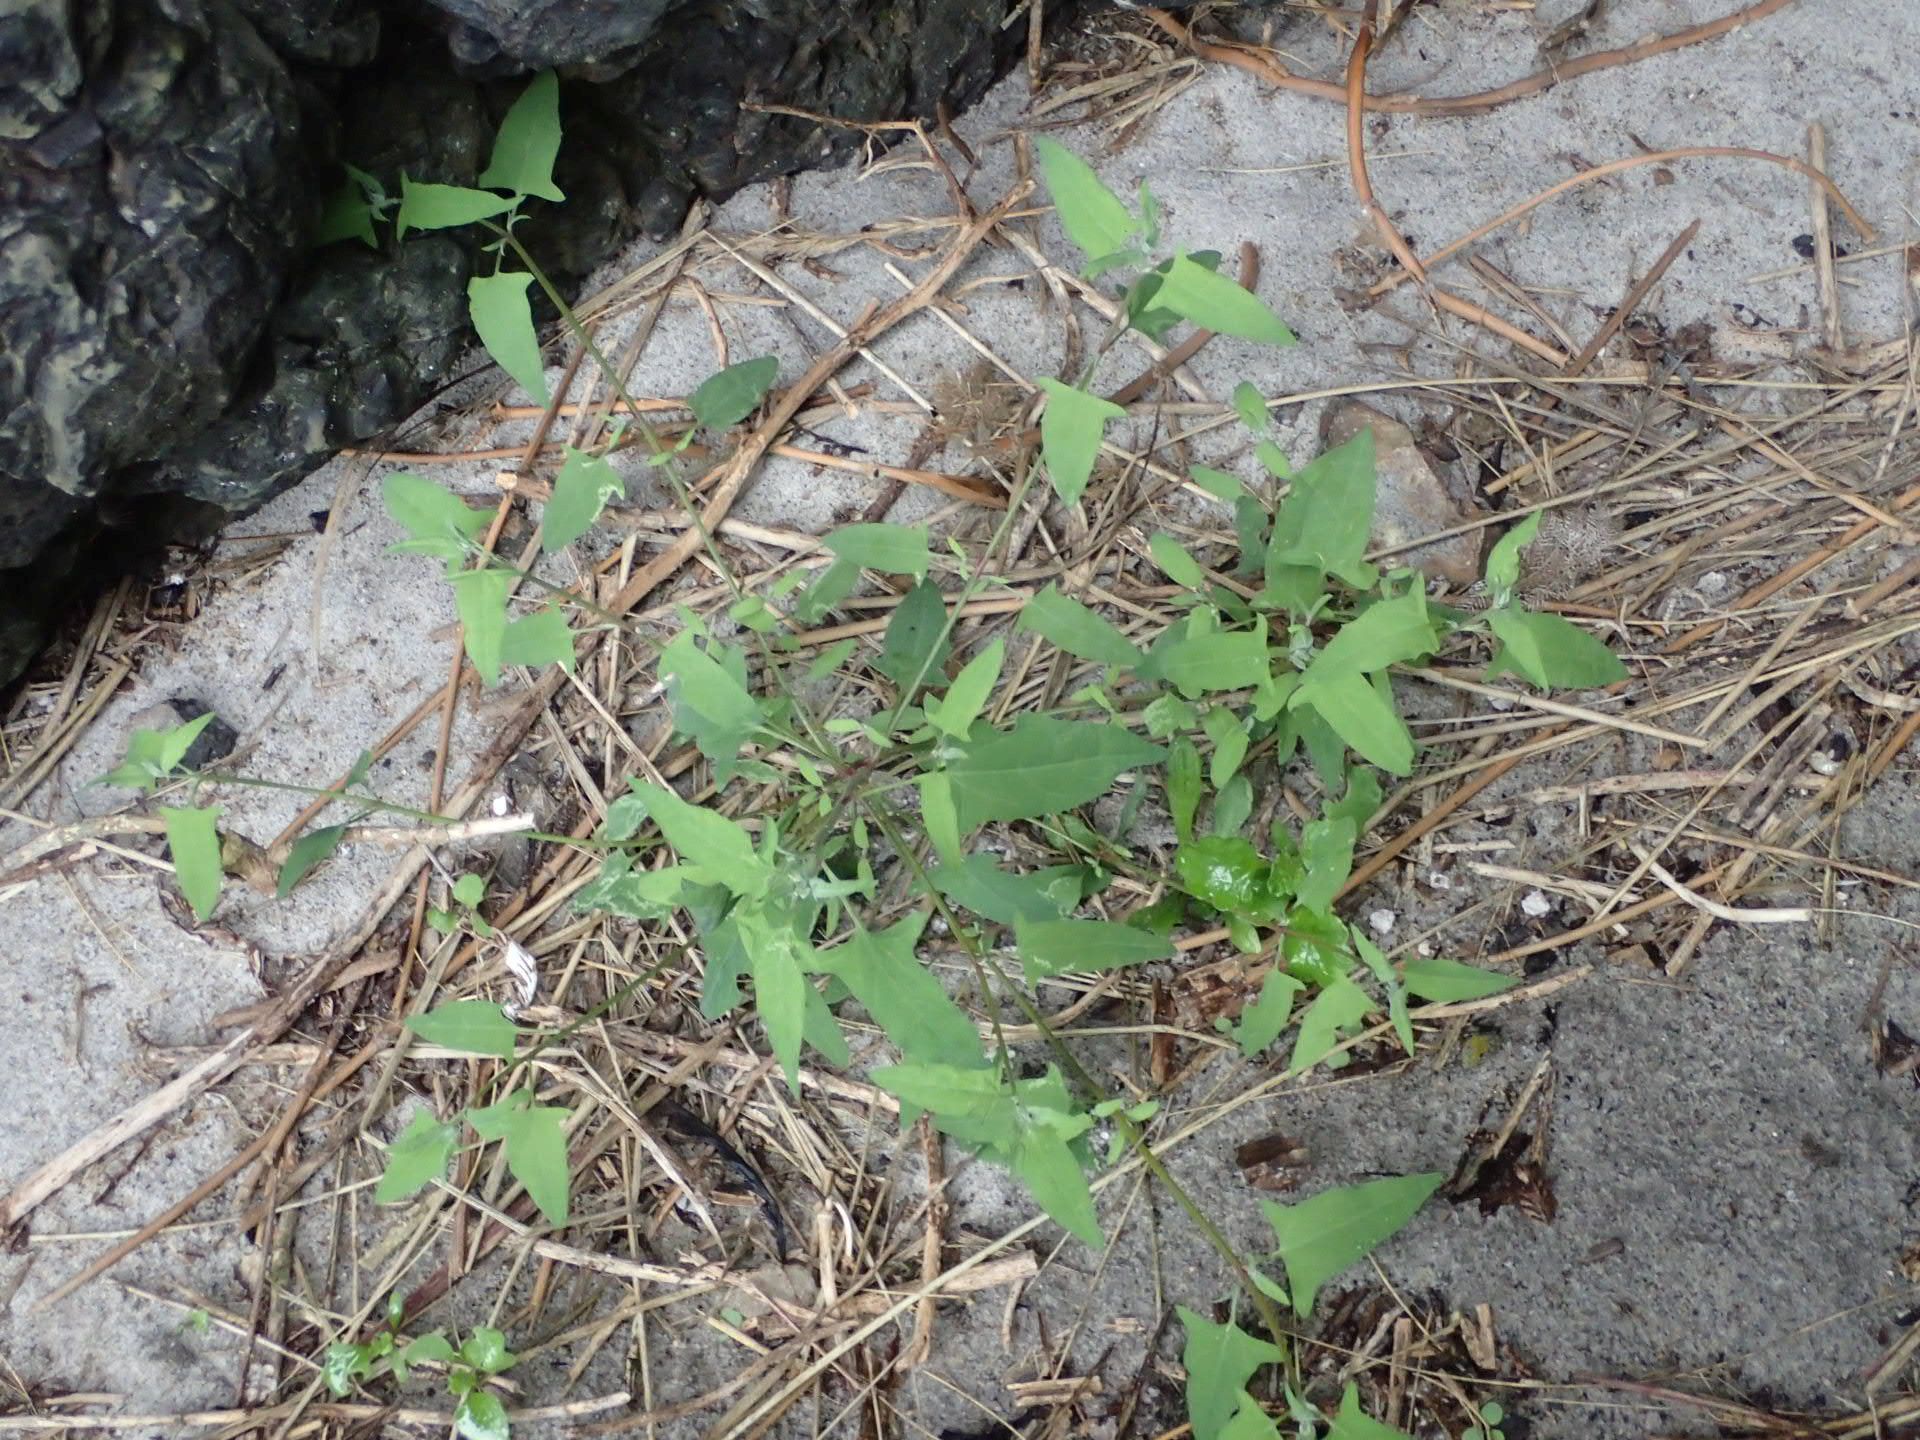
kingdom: Plantae
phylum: Tracheophyta
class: Magnoliopsida
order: Caryophyllales
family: Amaranthaceae
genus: Atriplex
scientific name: Atriplex patula
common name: Common orache
